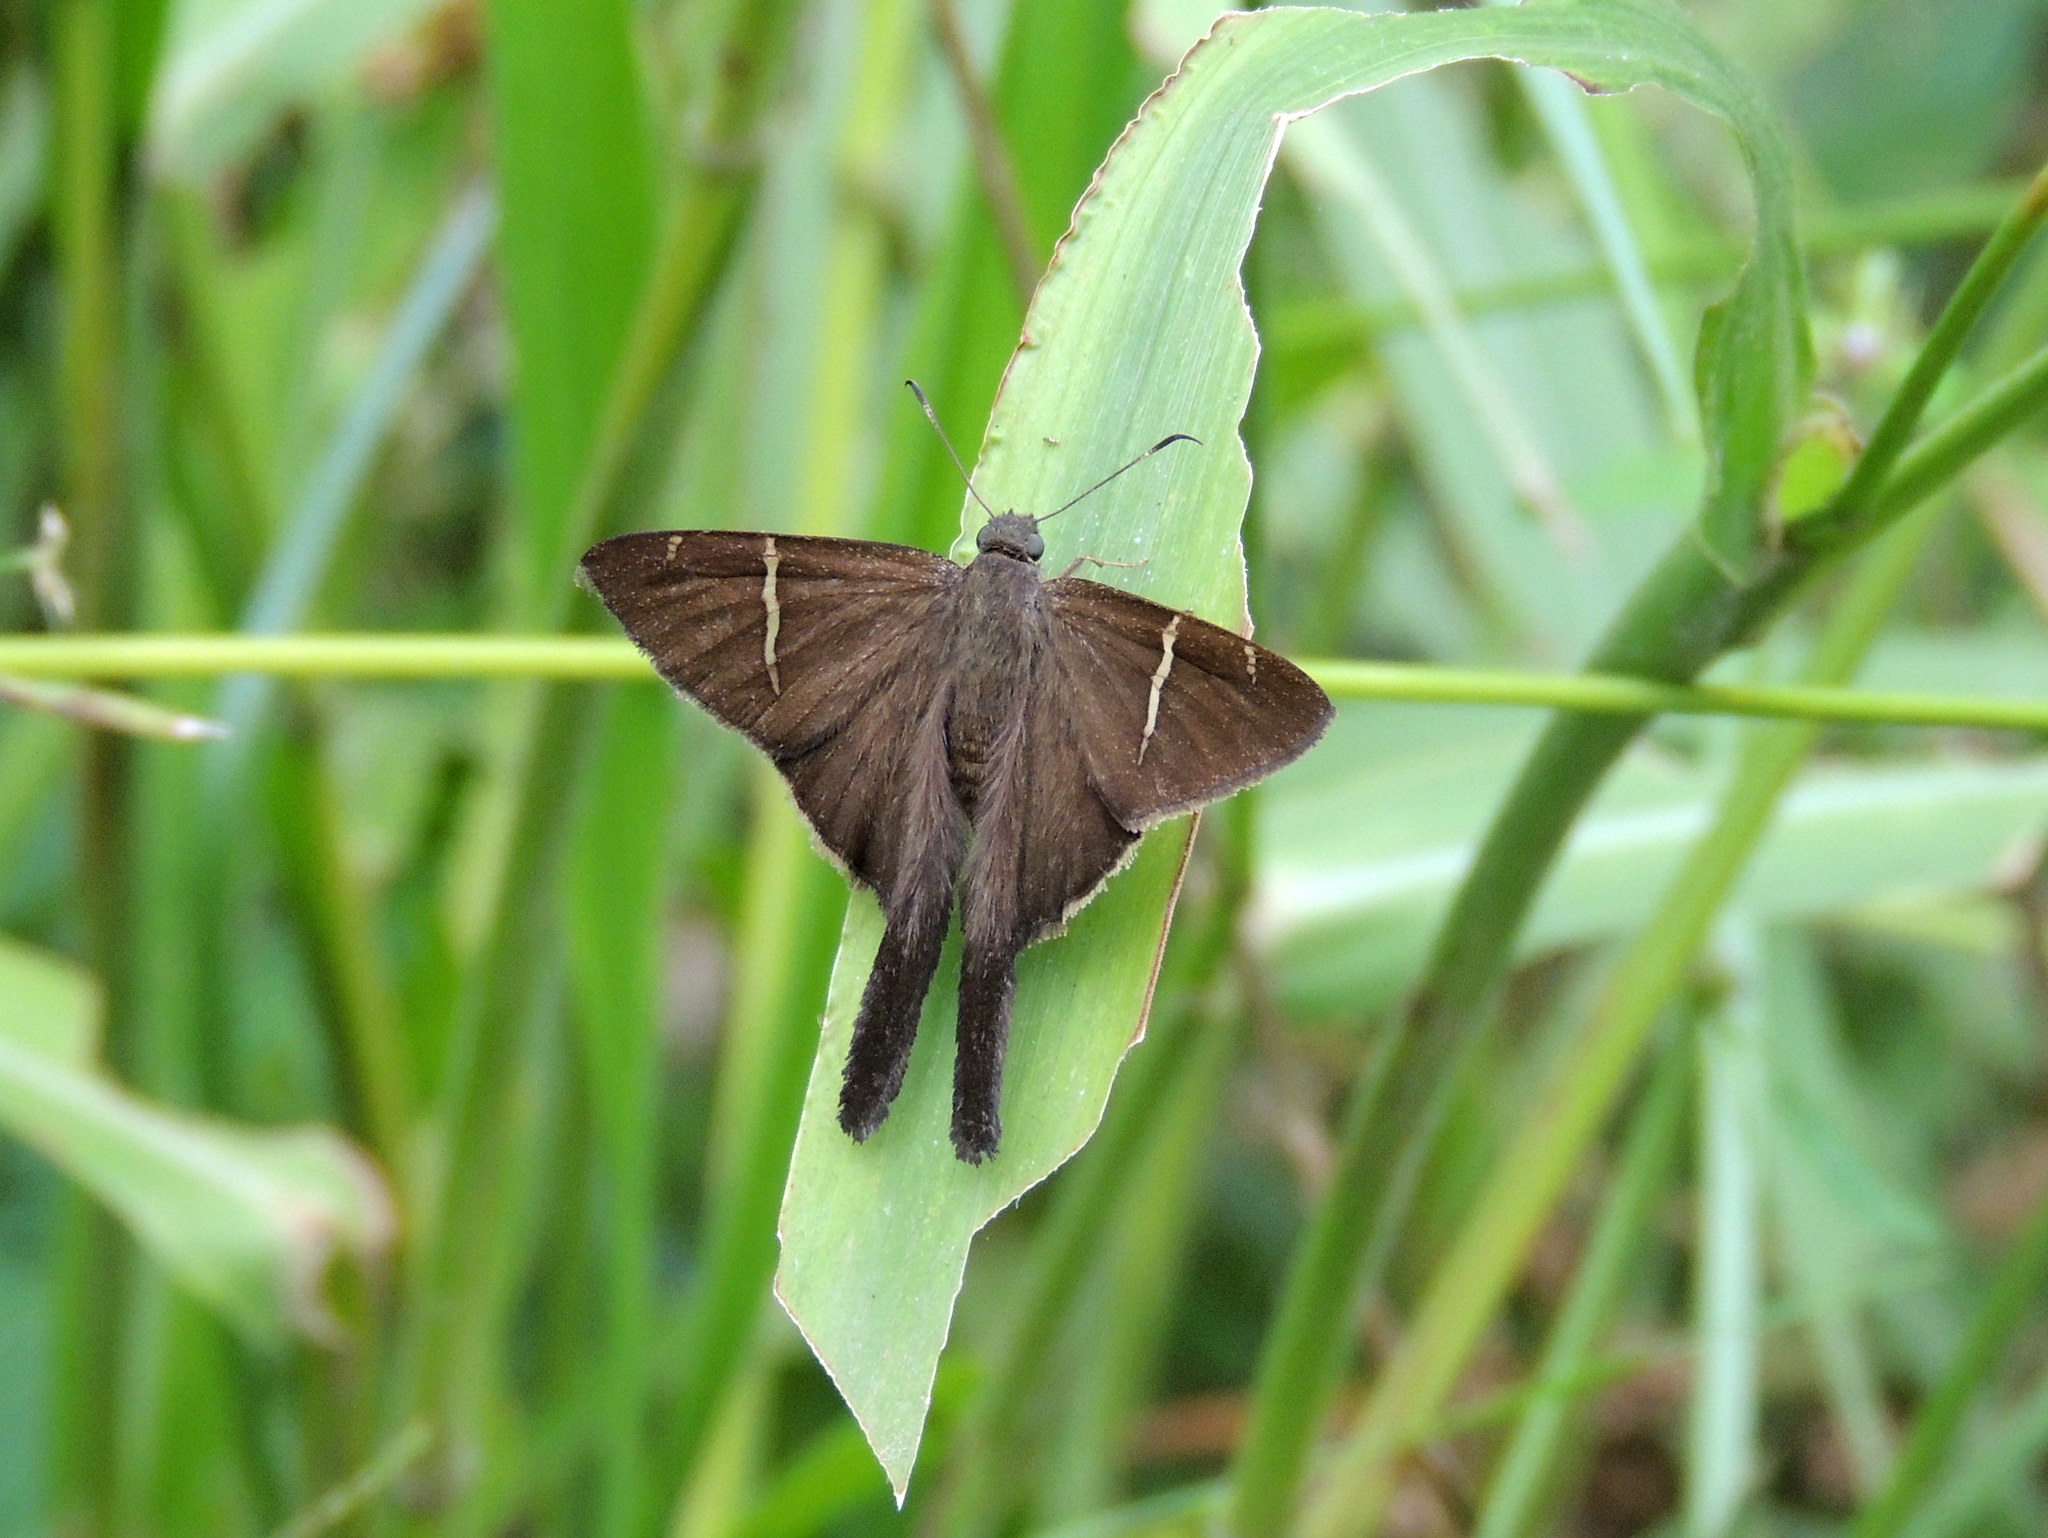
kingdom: Animalia
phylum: Arthropoda
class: Insecta
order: Lepidoptera
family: Hesperiidae
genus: Urbanus
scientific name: Urbanus procne
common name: Brown longtail
